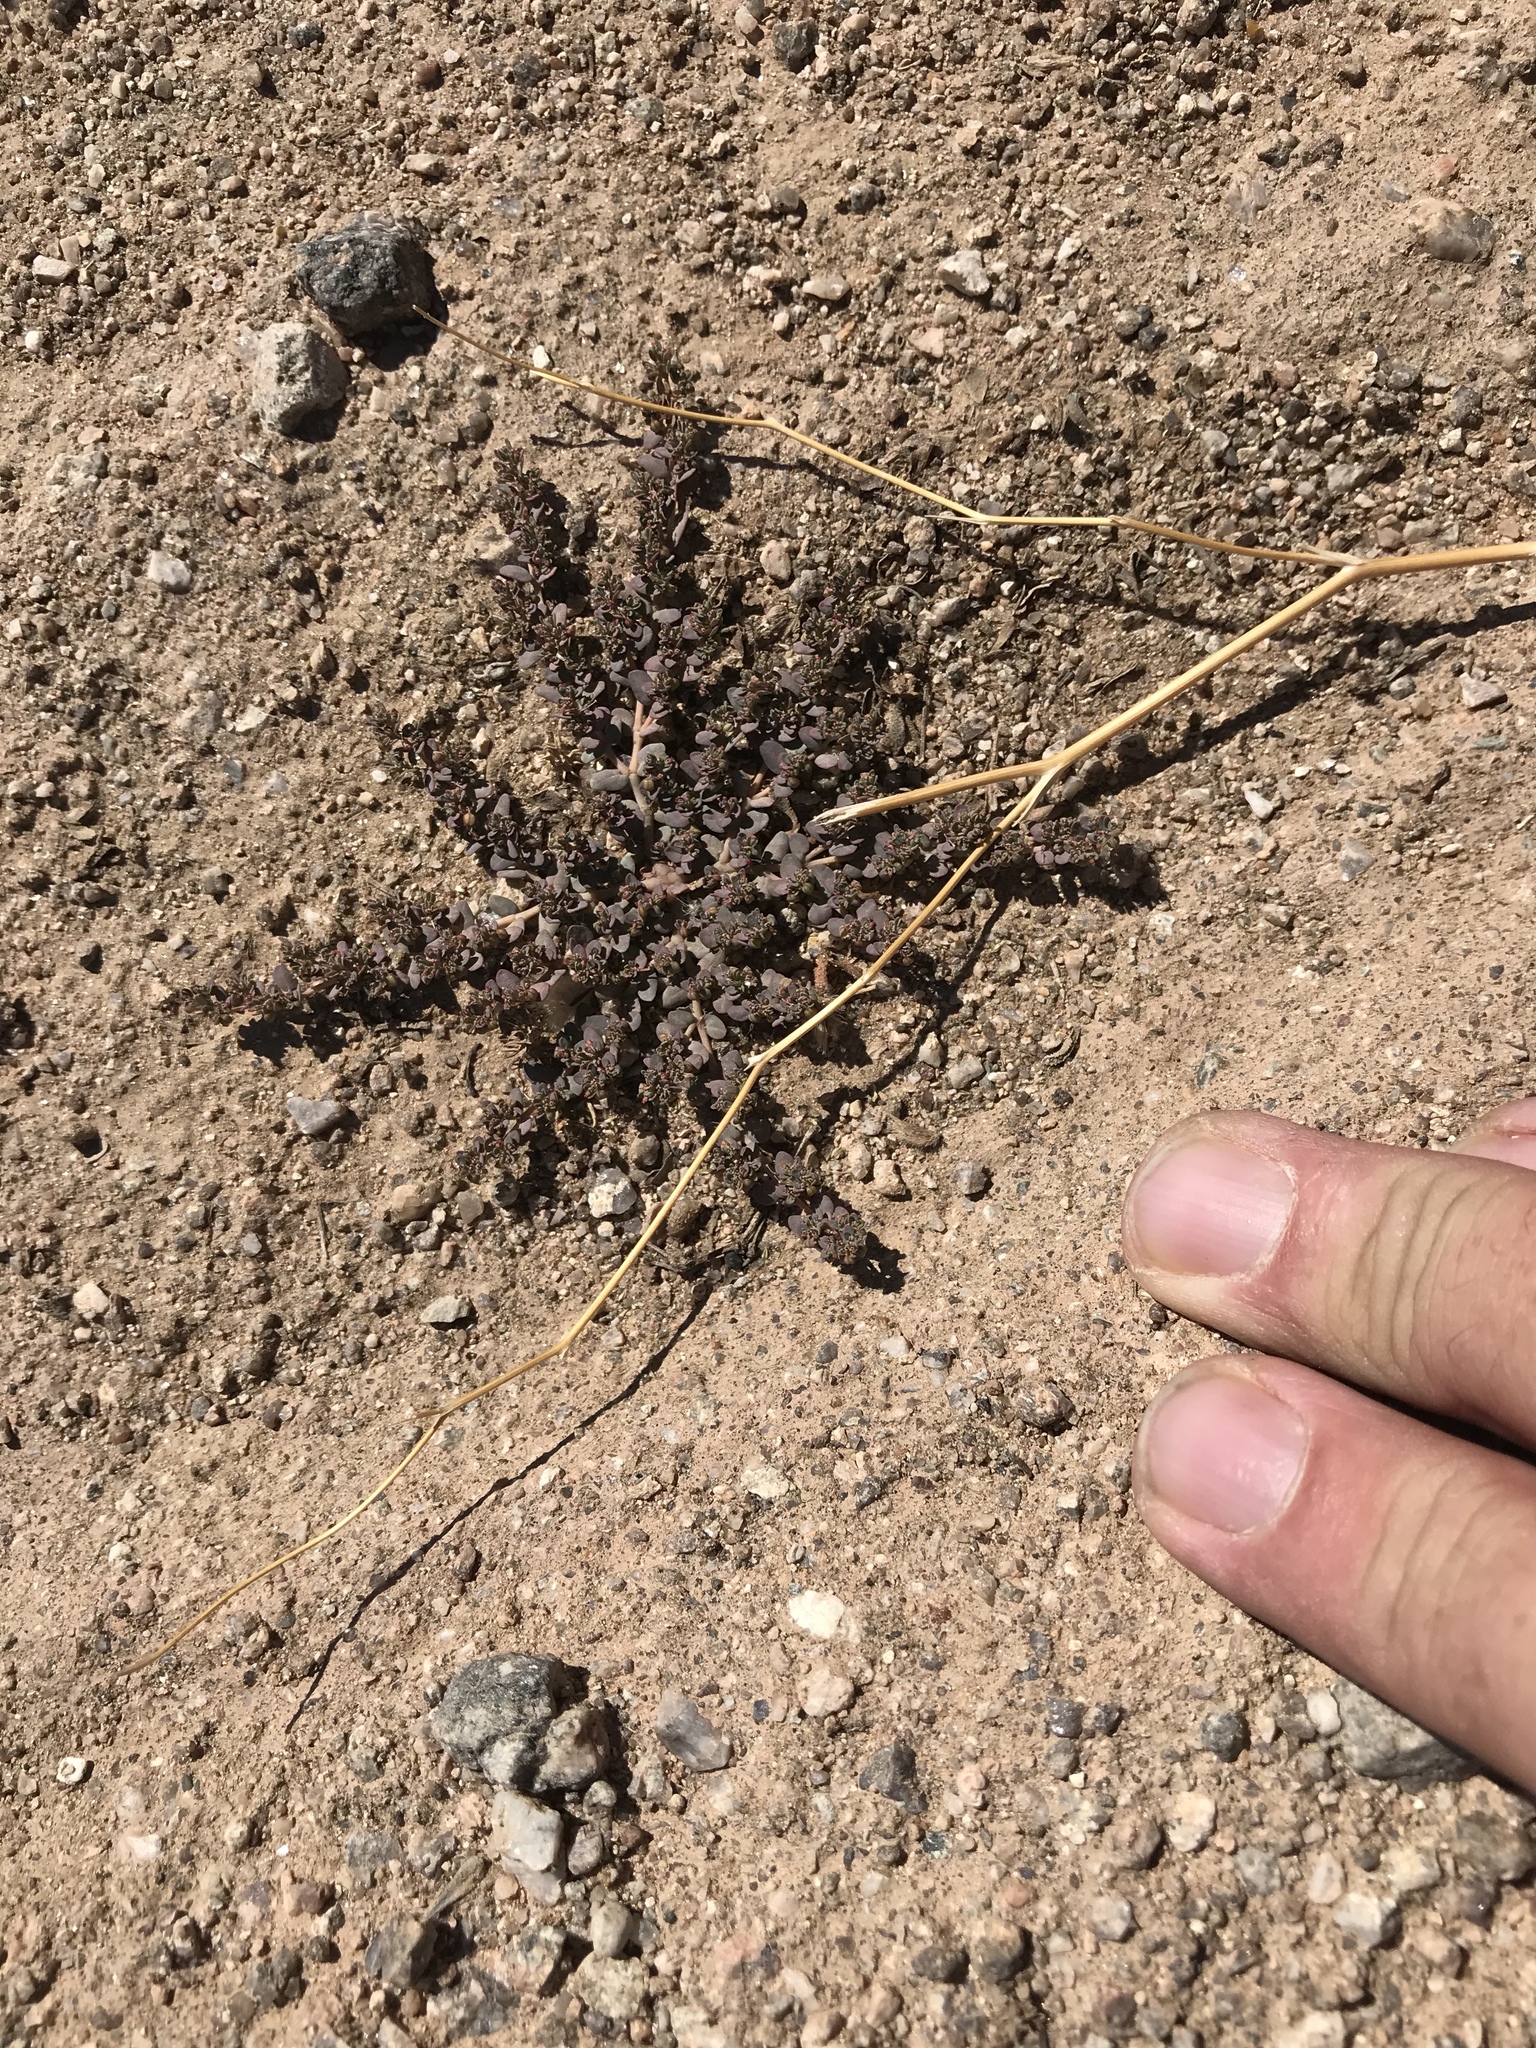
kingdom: Plantae
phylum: Tracheophyta
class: Magnoliopsida
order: Malpighiales
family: Euphorbiaceae
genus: Euphorbia
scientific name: Euphorbia micromera
